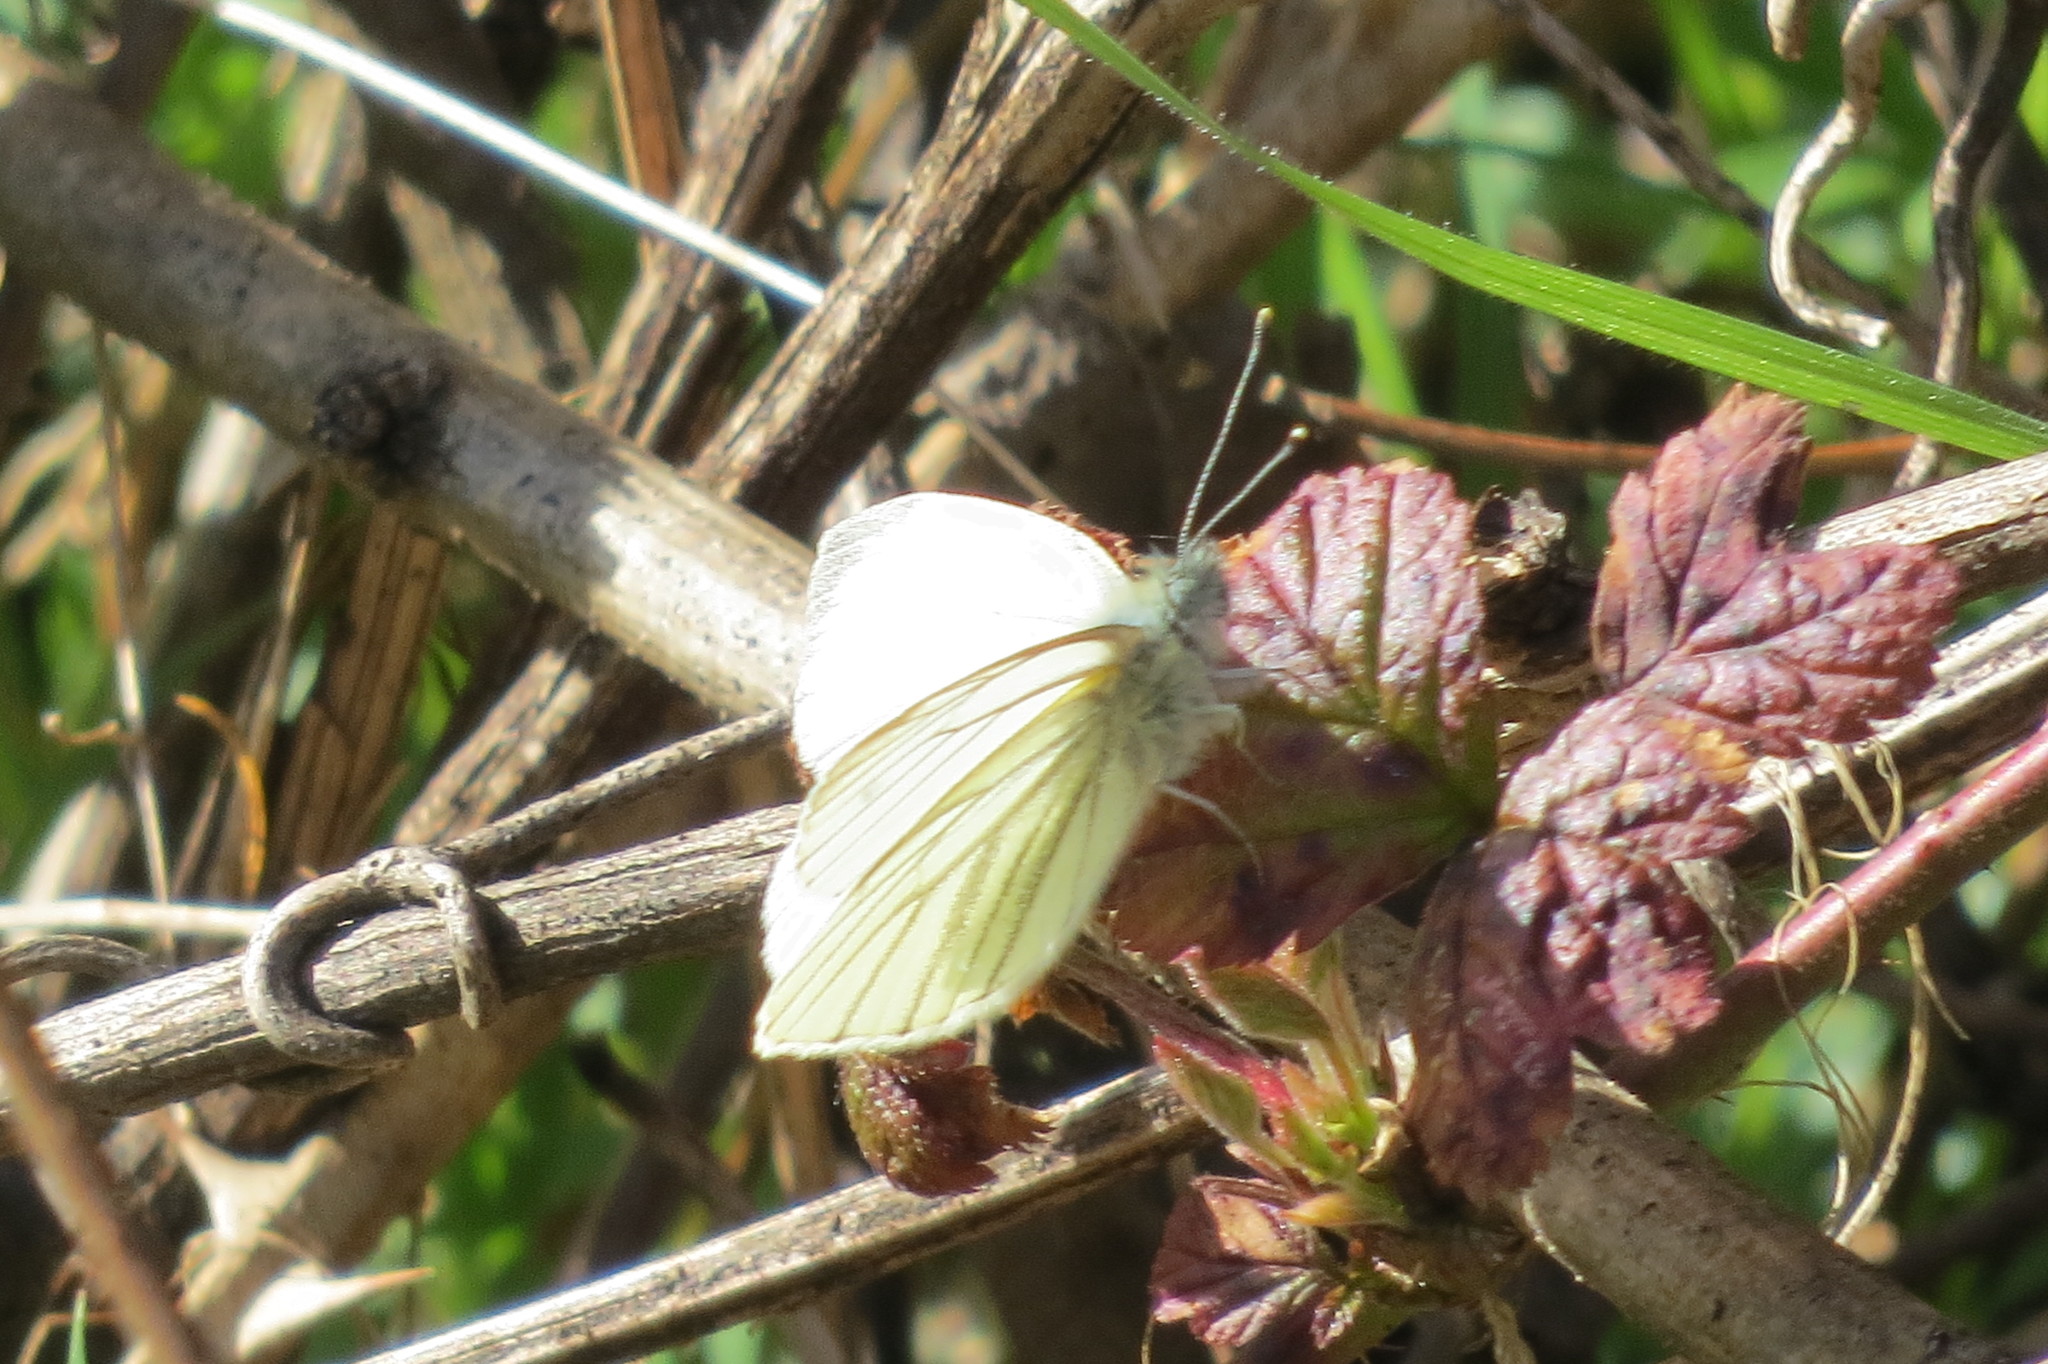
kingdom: Animalia
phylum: Arthropoda
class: Insecta
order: Lepidoptera
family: Pieridae
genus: Pieris
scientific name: Pieris napi
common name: Green-veined white
